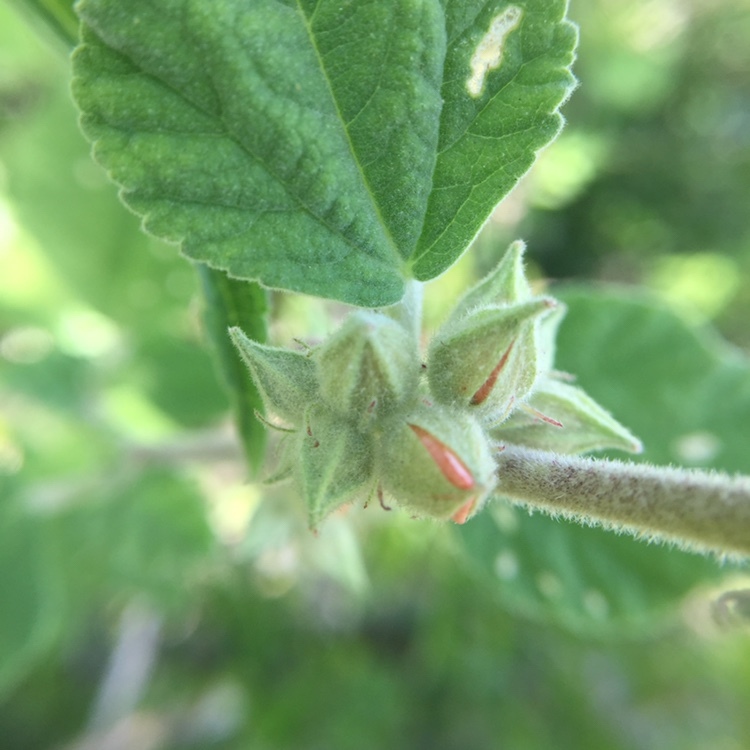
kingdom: Plantae
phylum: Tracheophyta
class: Magnoliopsida
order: Malvales
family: Malvaceae
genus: Sphaeralcea
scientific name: Sphaeralcea bonariensis
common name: Latin globemallow
